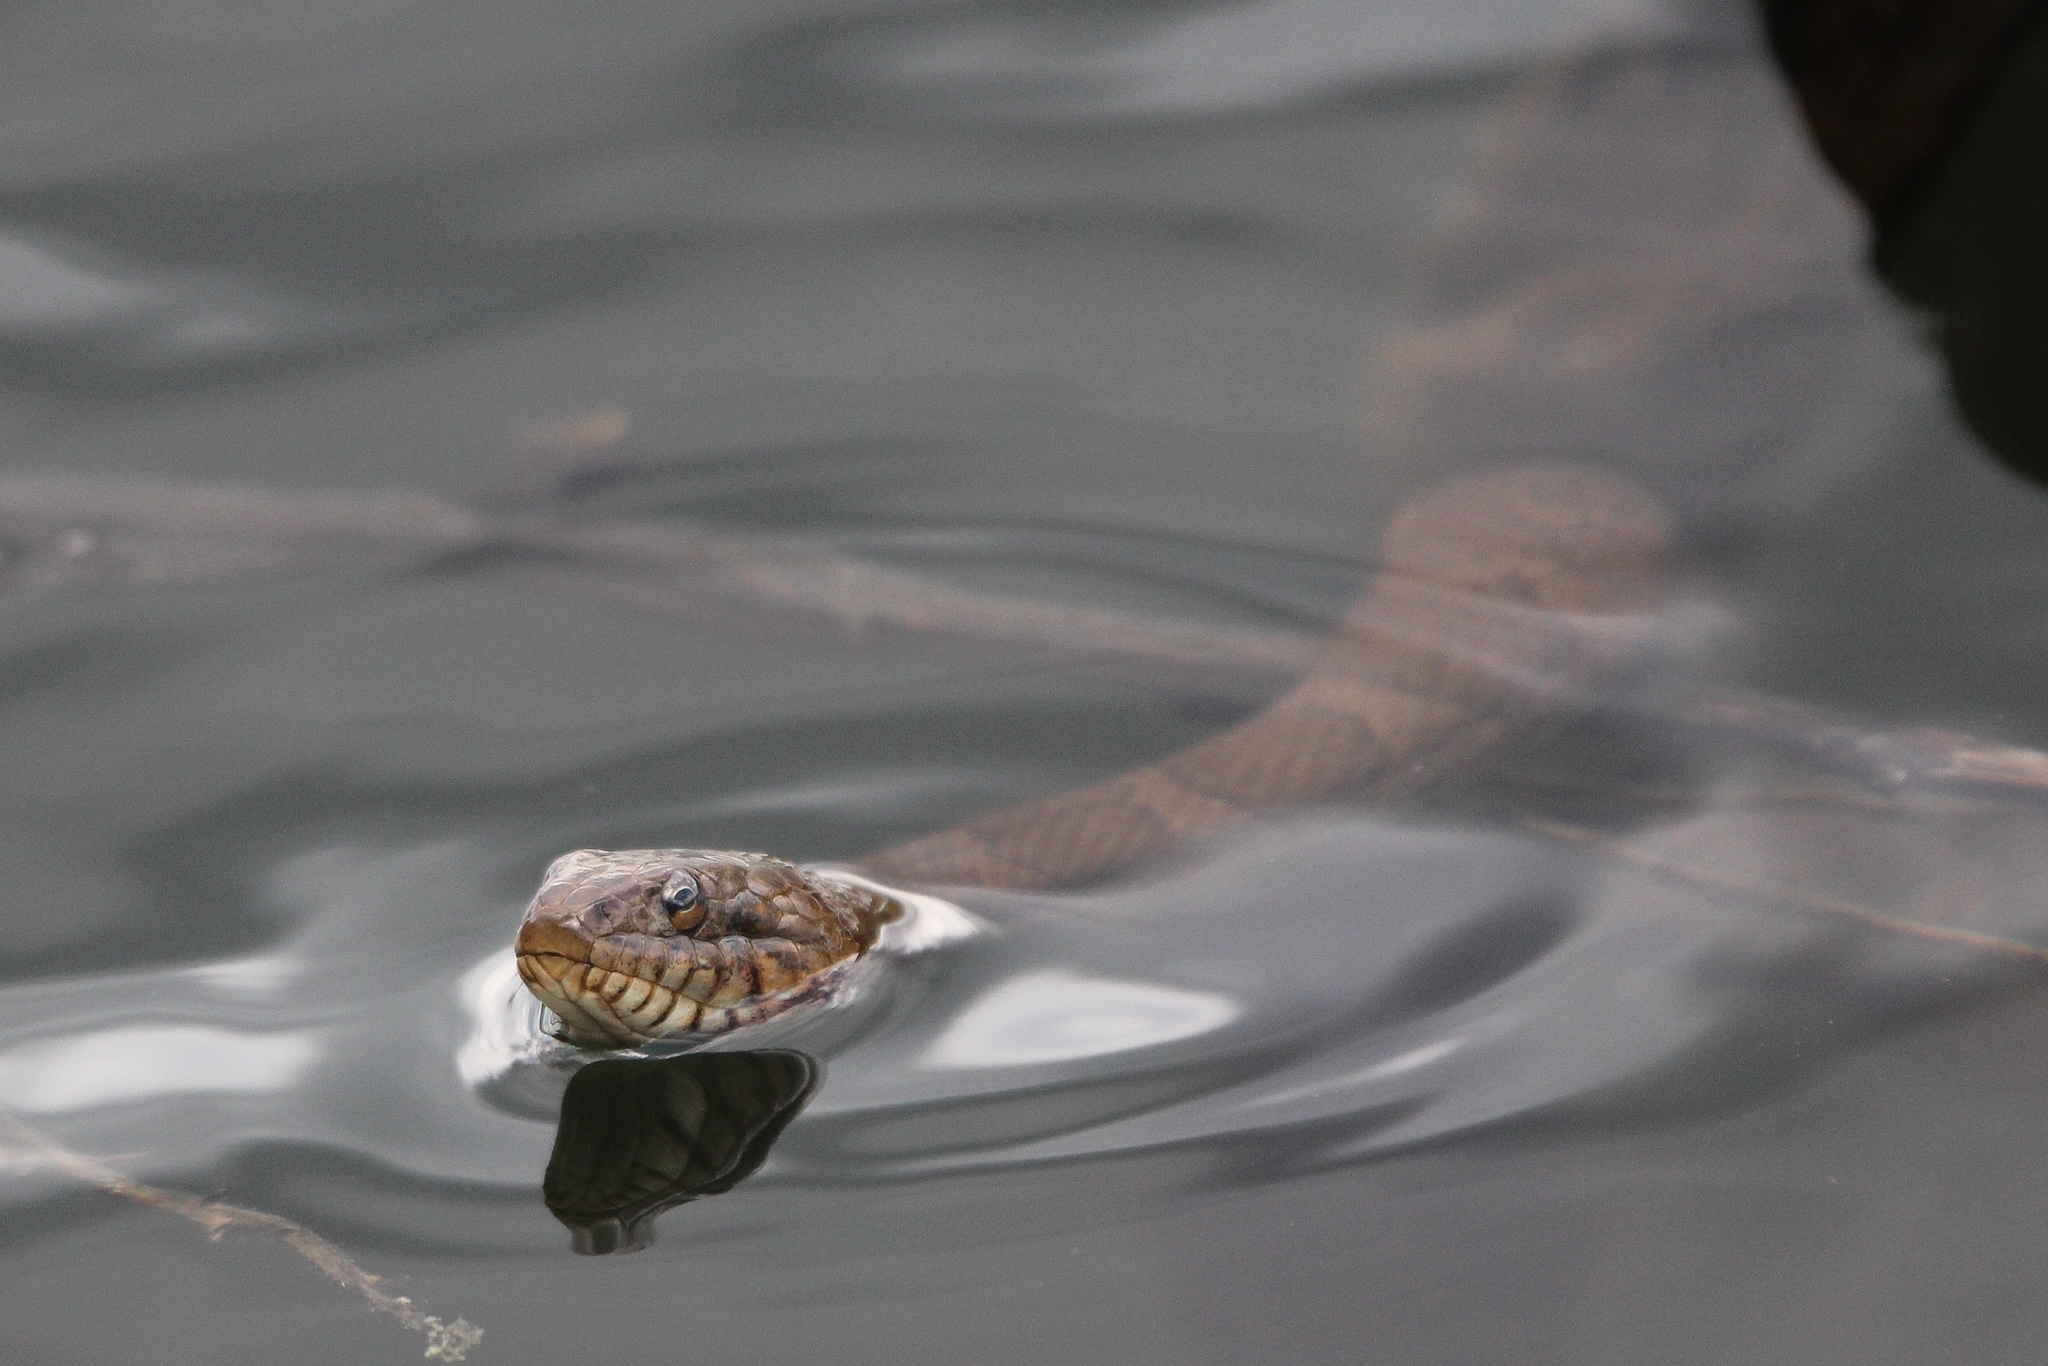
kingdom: Animalia
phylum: Chordata
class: Squamata
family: Colubridae
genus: Nerodia
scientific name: Nerodia sipedon
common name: Northern water snake
